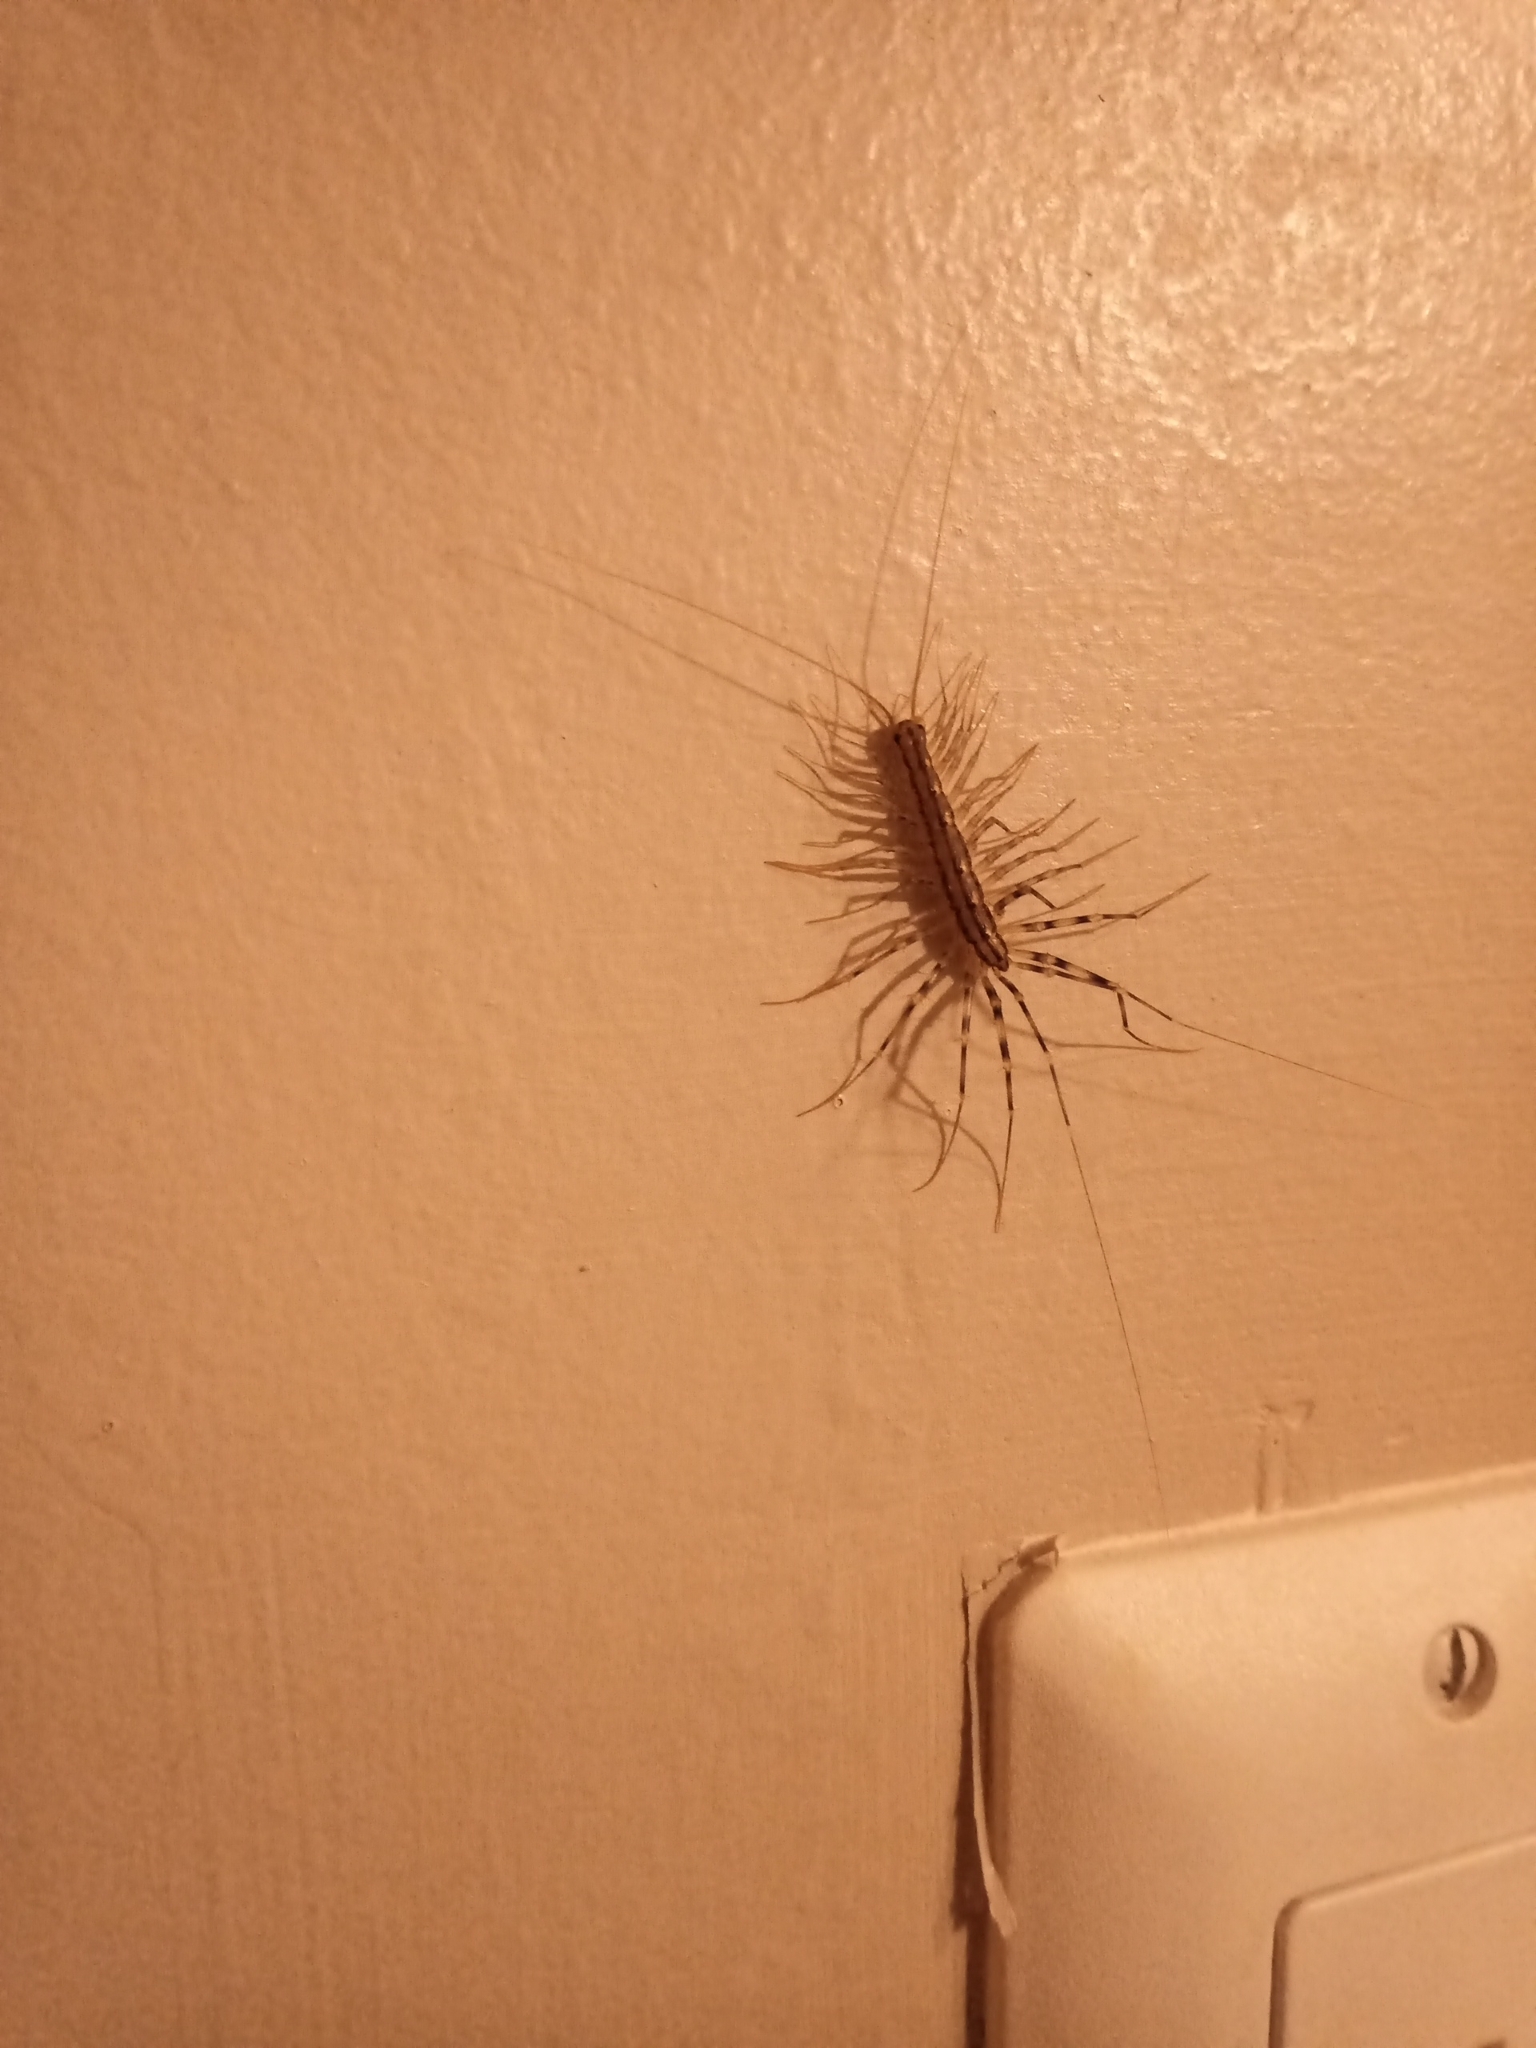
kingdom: Animalia
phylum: Arthropoda
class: Chilopoda
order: Scutigeromorpha
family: Scutigeridae
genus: Scutigera
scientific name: Scutigera coleoptrata
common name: House centipede
